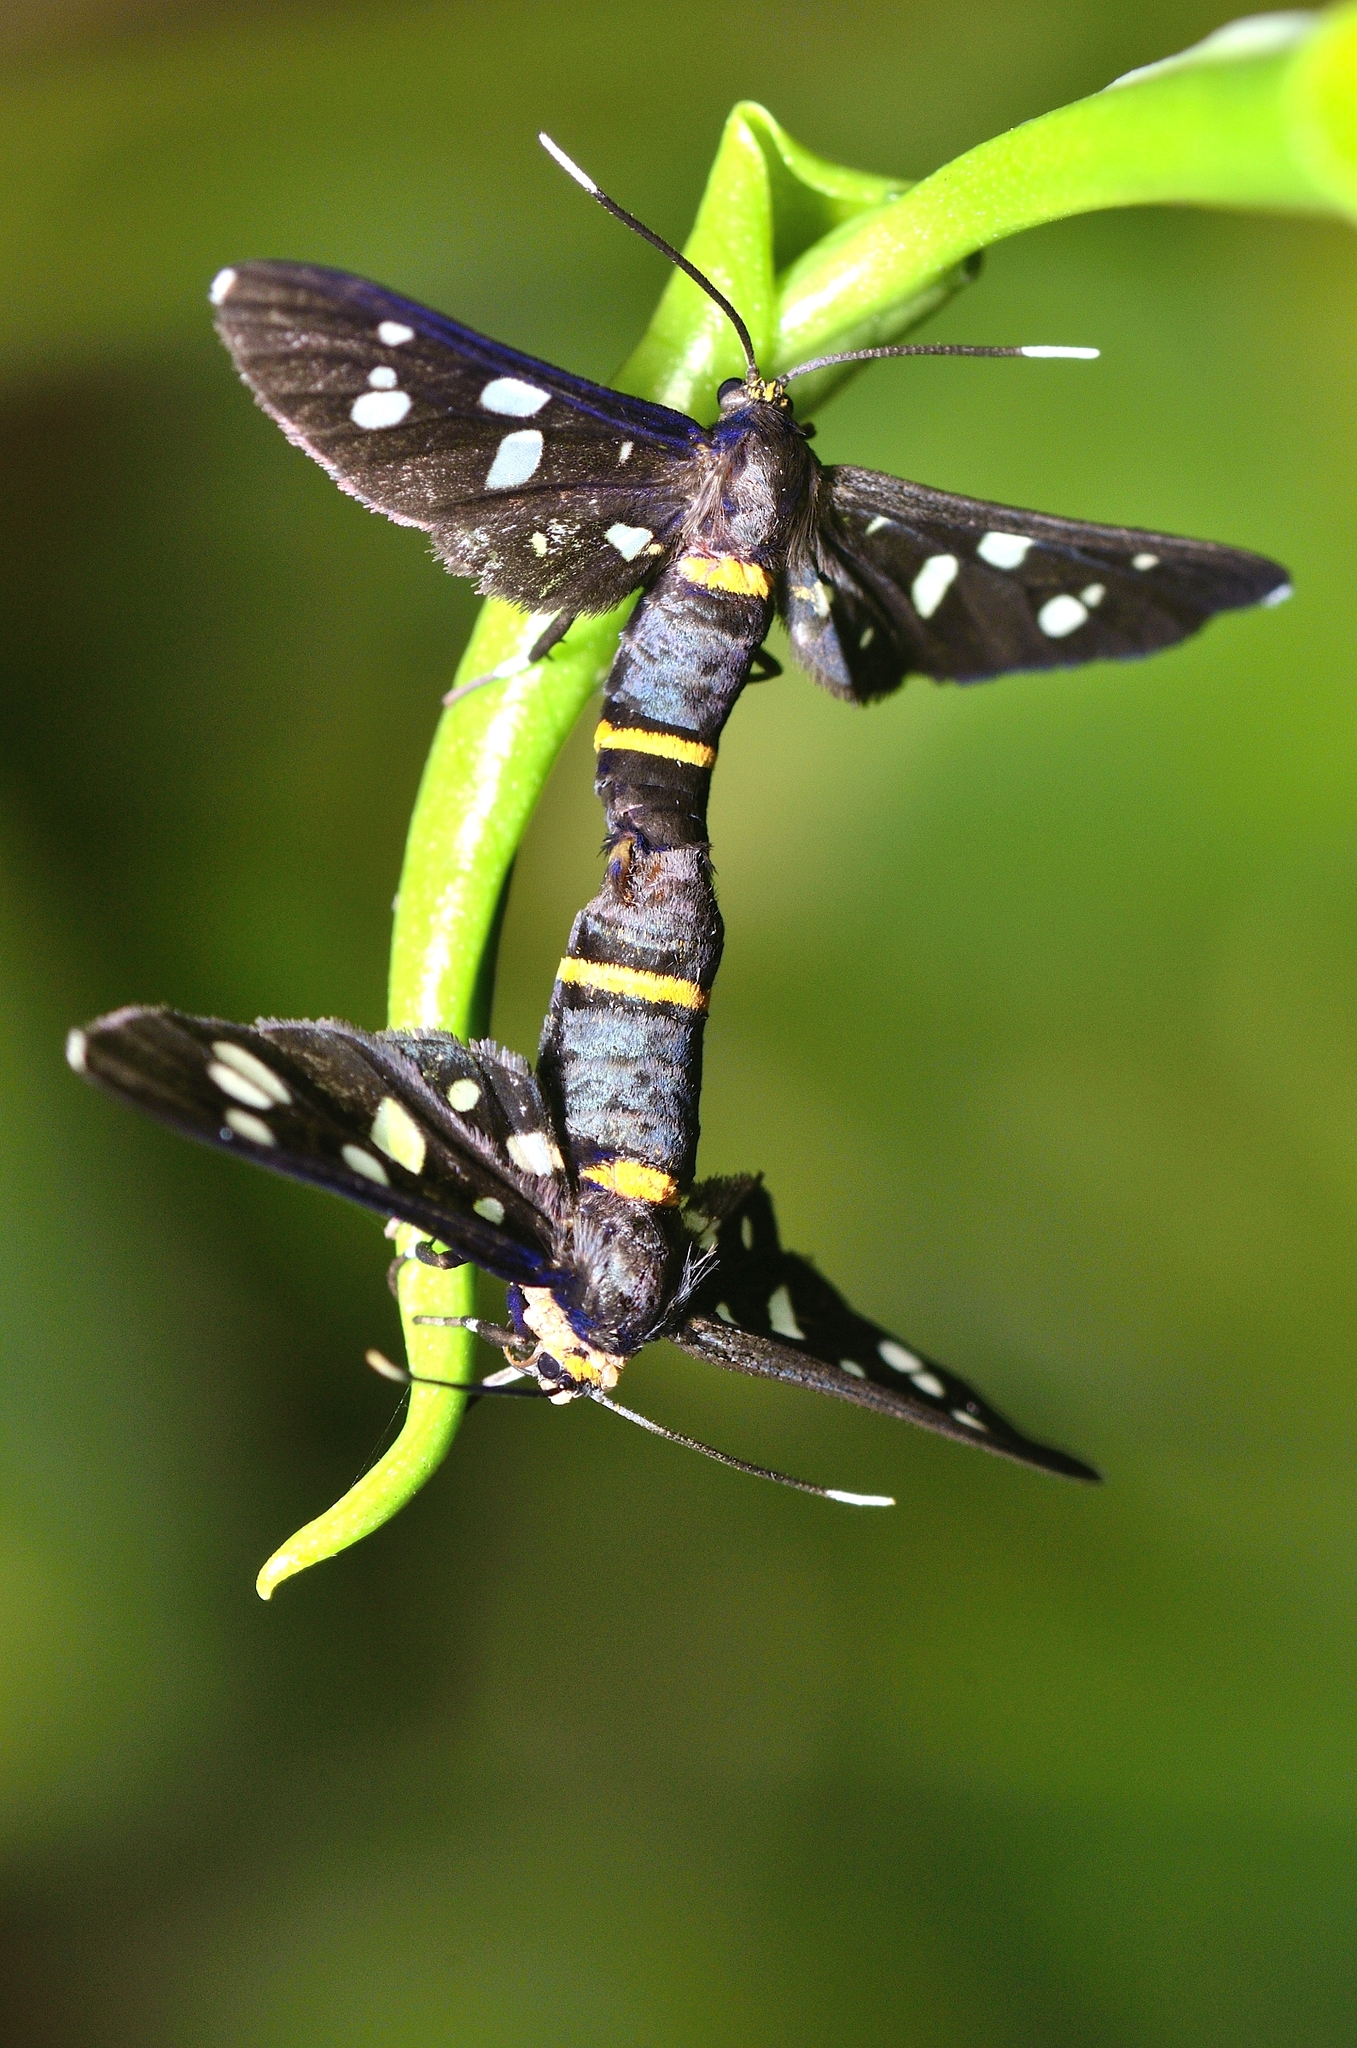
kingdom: Animalia
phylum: Arthropoda
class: Insecta
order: Lepidoptera
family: Erebidae
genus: Amata
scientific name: Amata cyssea
